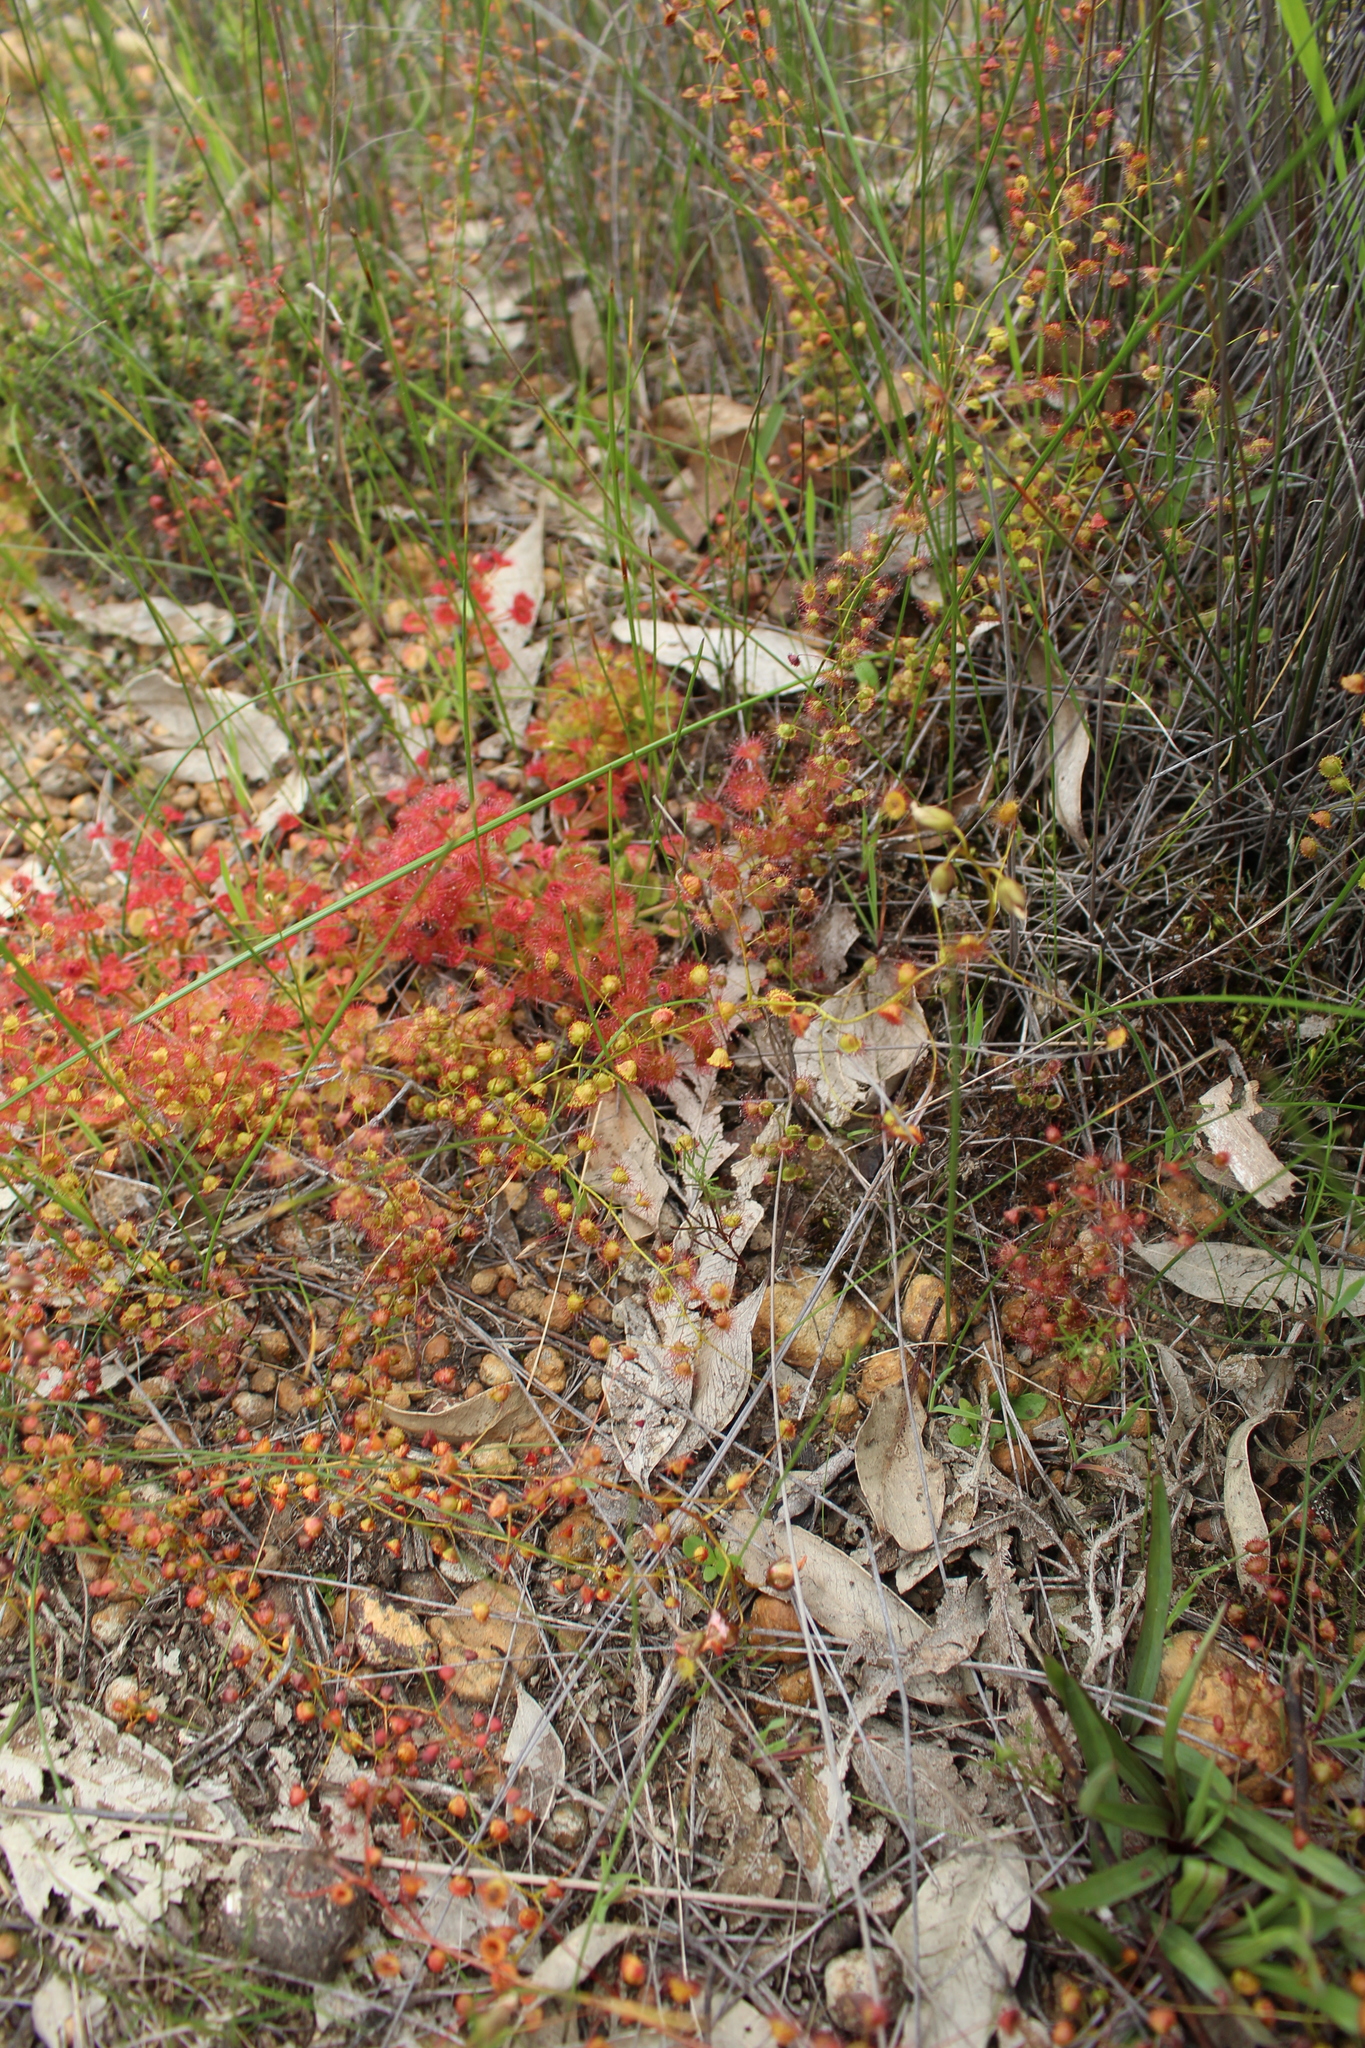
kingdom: Plantae
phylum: Tracheophyta
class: Magnoliopsida
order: Caryophyllales
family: Droseraceae
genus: Drosera
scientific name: Drosera macrantha
